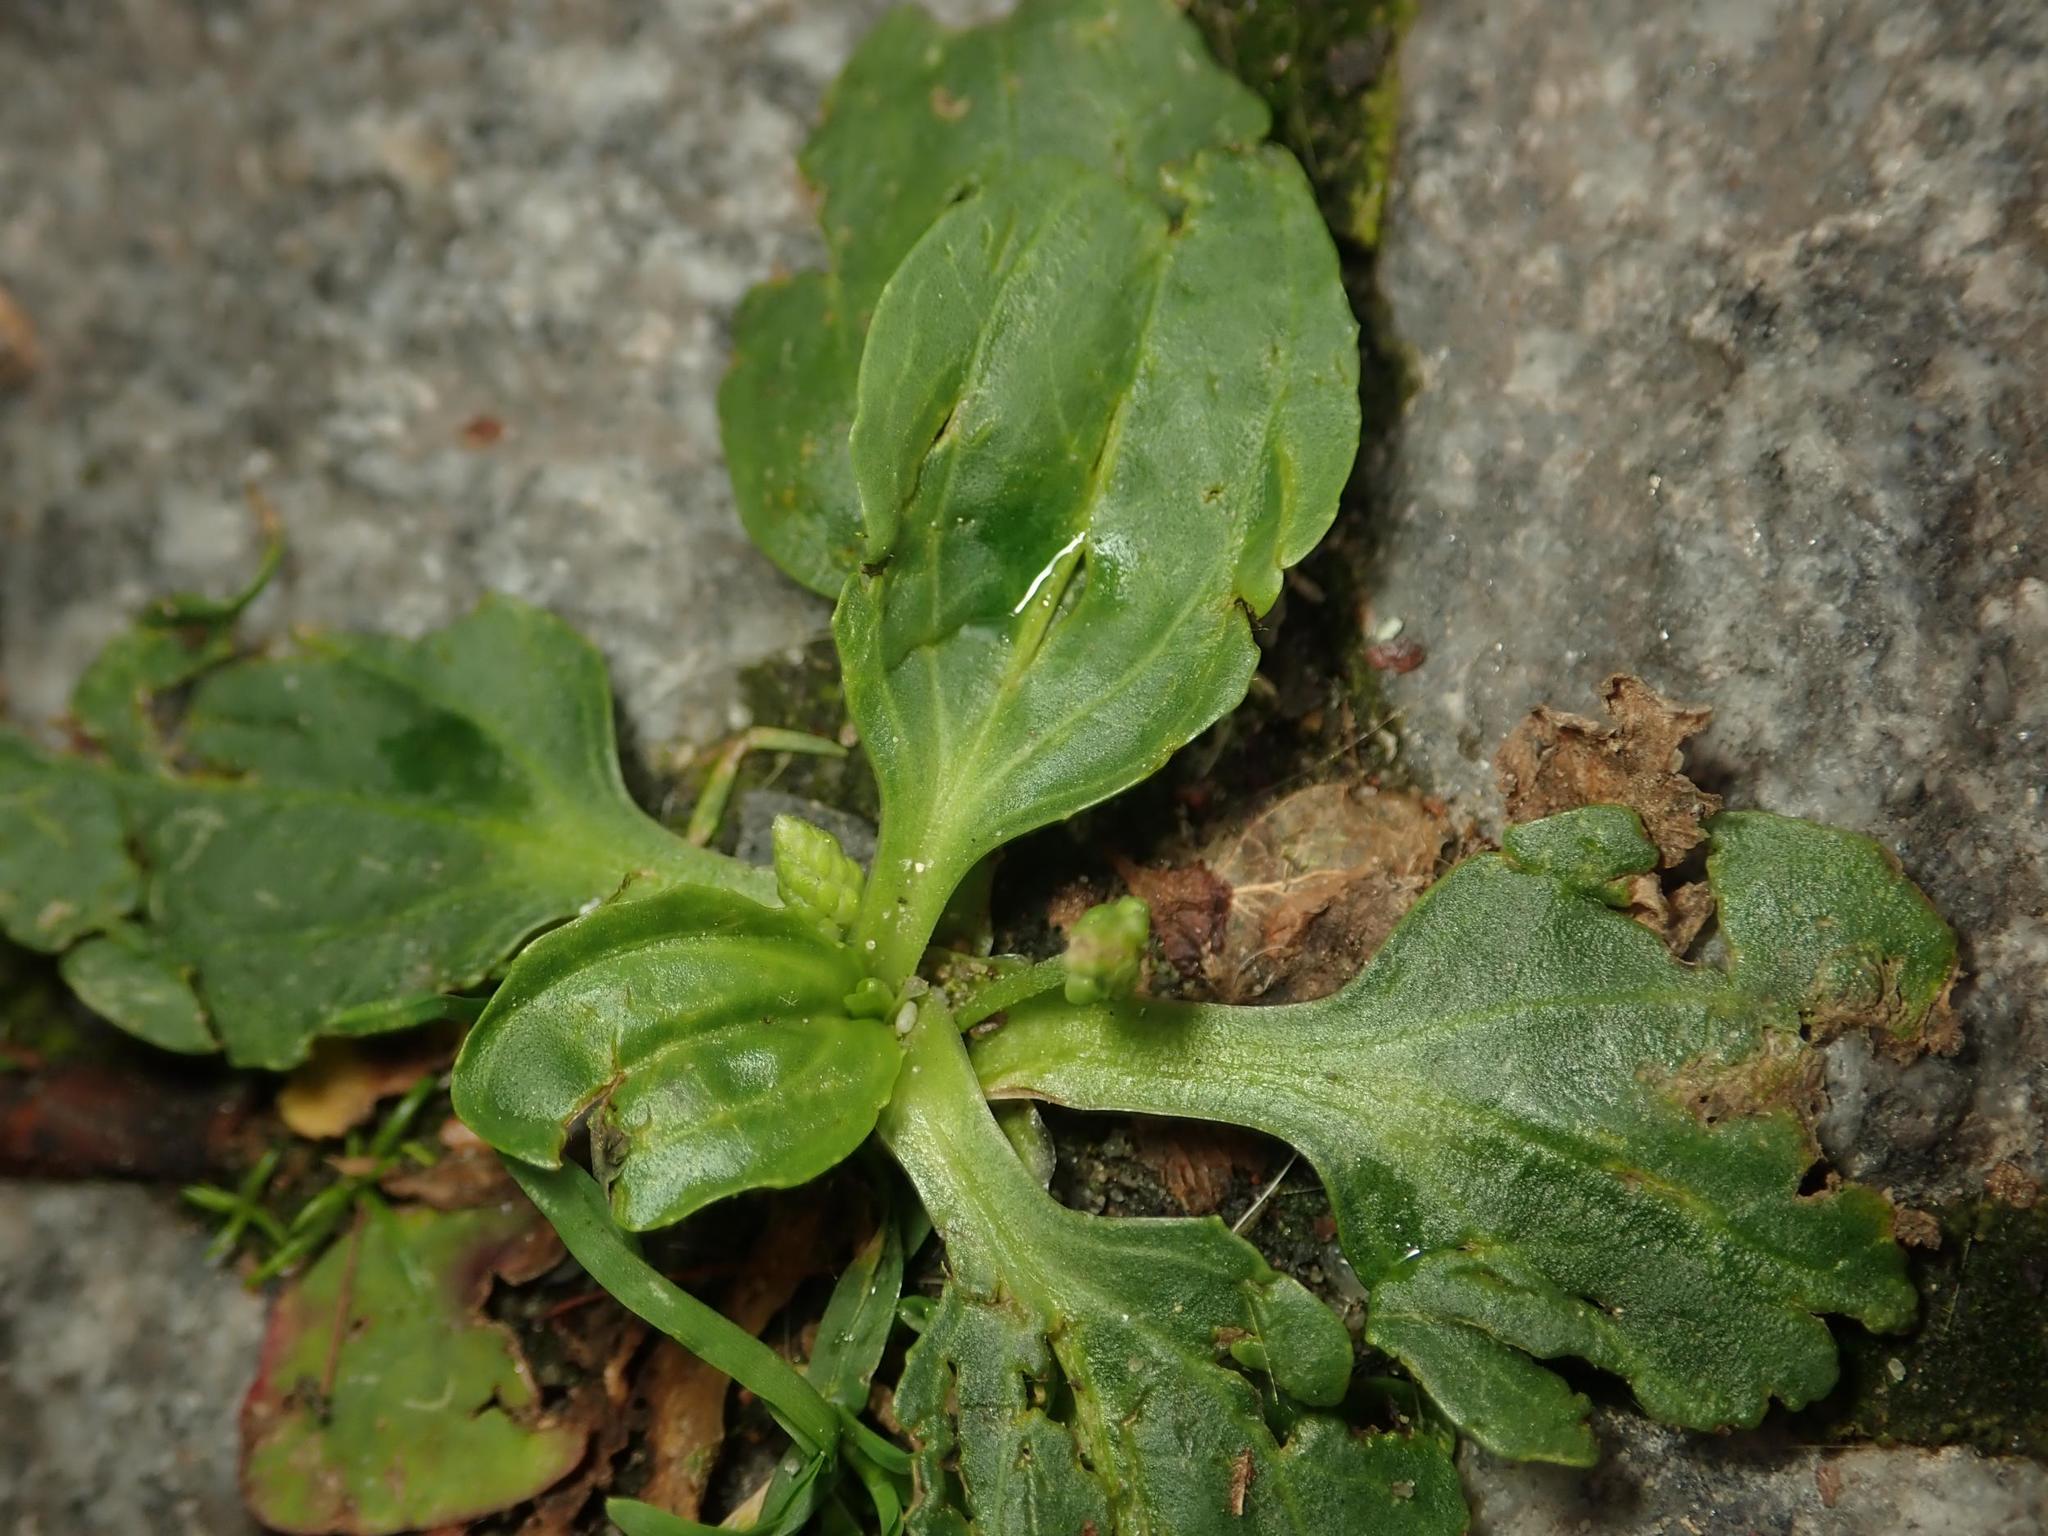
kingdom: Plantae
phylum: Tracheophyta
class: Magnoliopsida
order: Lamiales
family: Plantaginaceae
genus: Plantago
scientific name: Plantago major
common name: Common plantain
